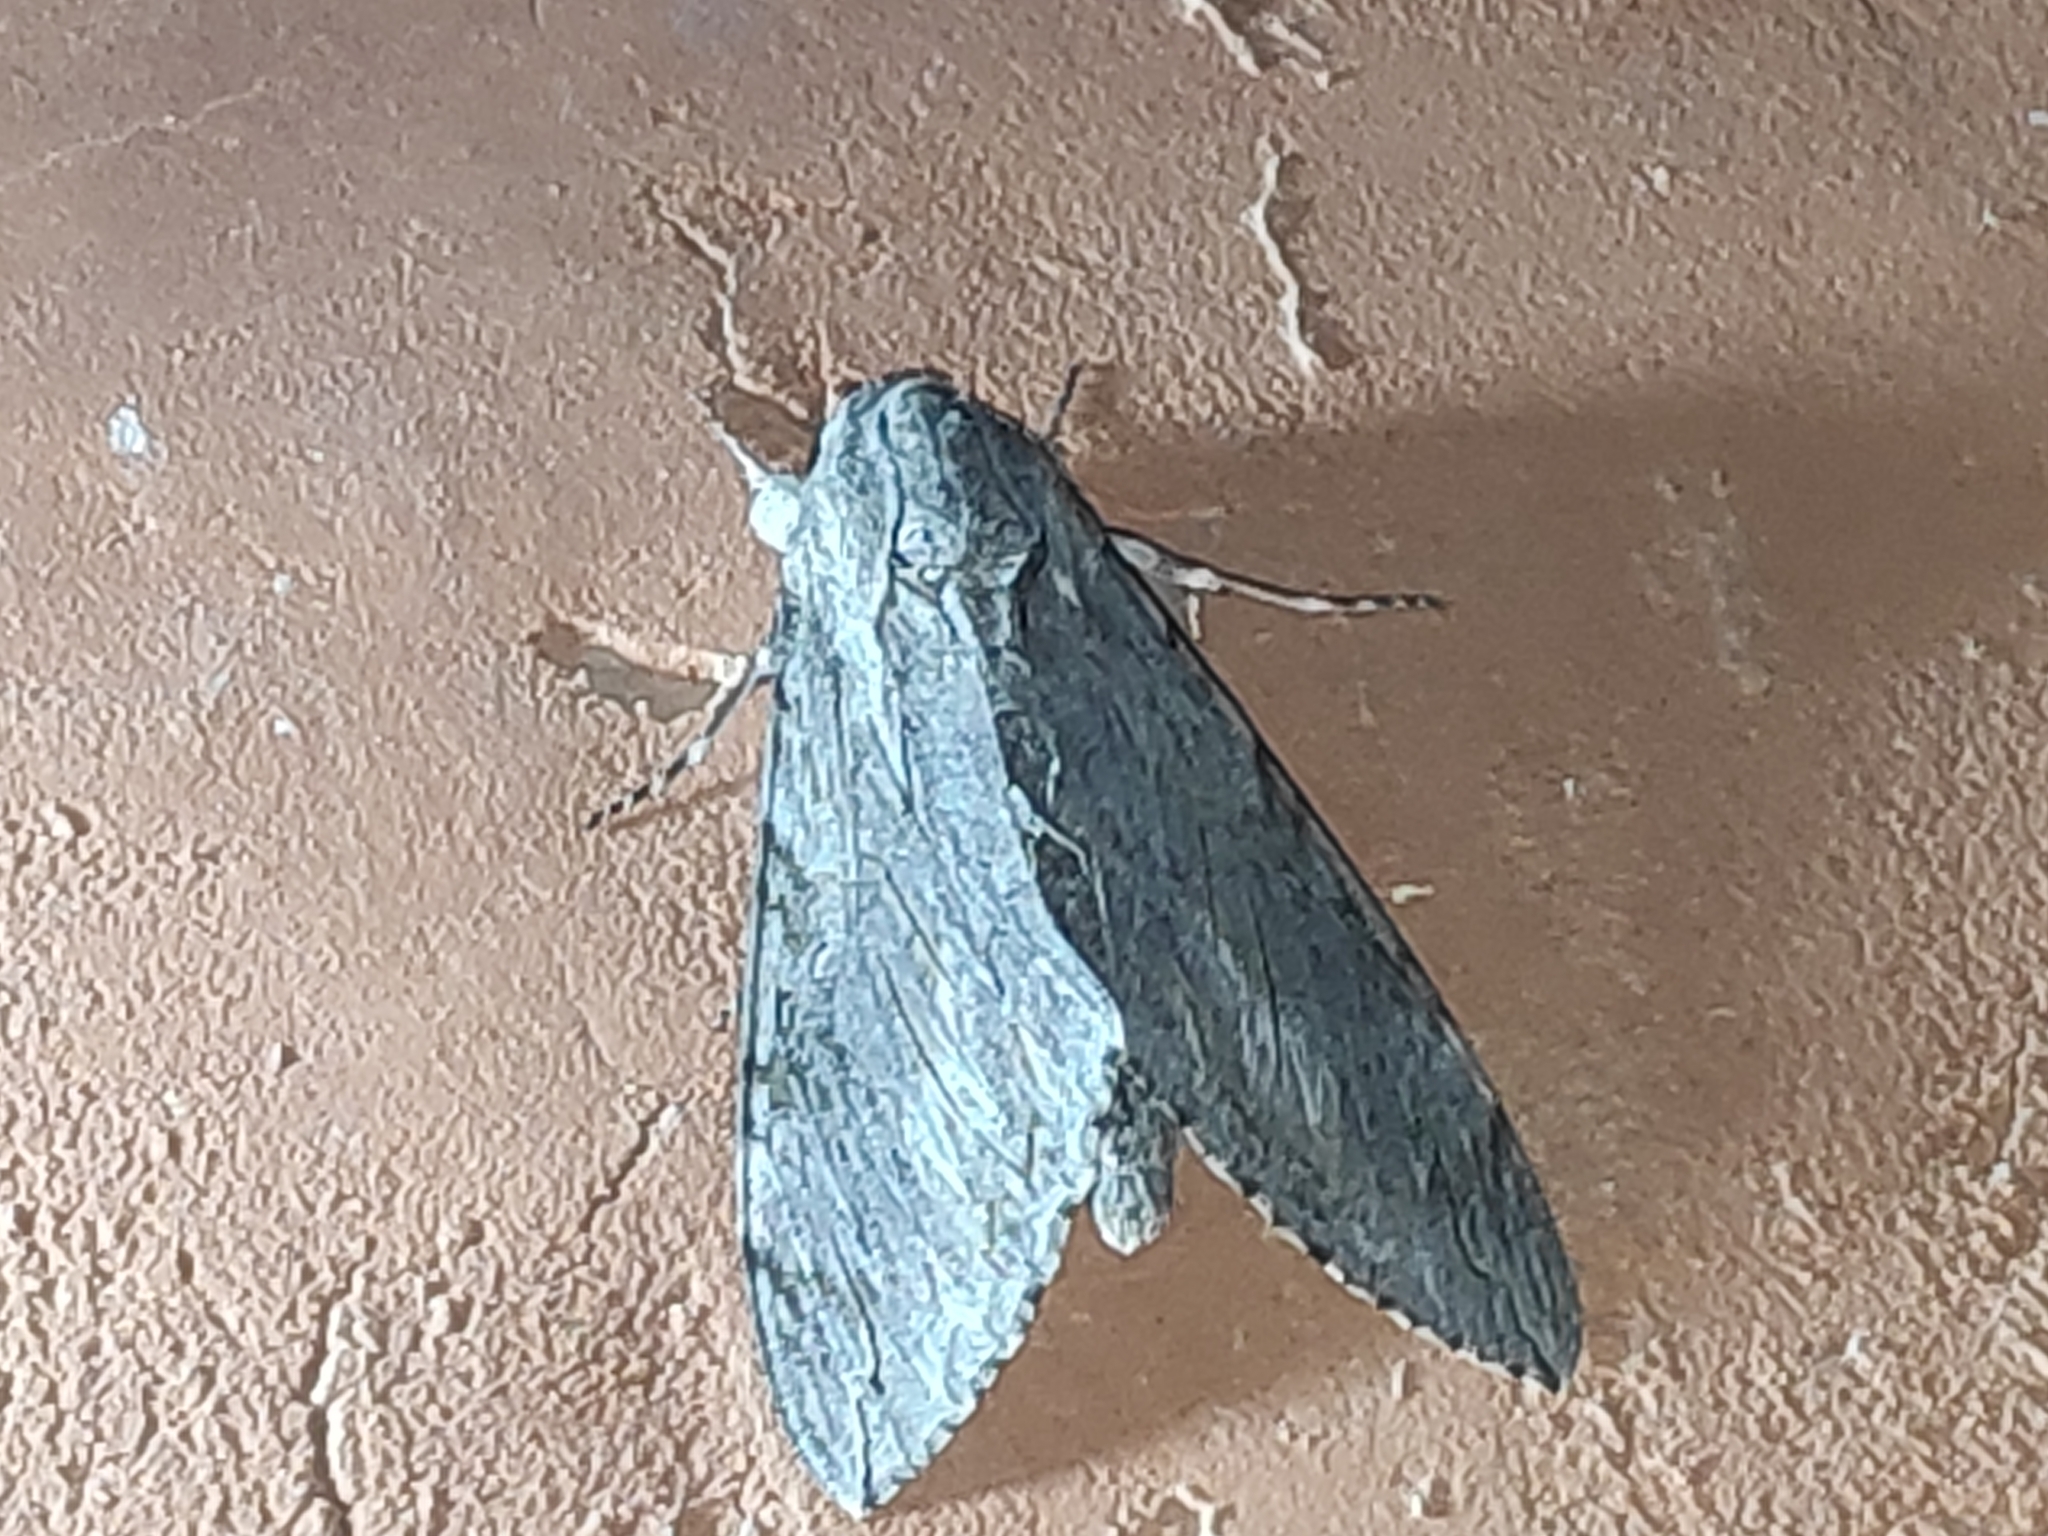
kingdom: Animalia
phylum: Arthropoda
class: Insecta
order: Lepidoptera
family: Sphingidae
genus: Agrius
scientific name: Agrius convolvuli
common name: Convolvulus hawkmoth
